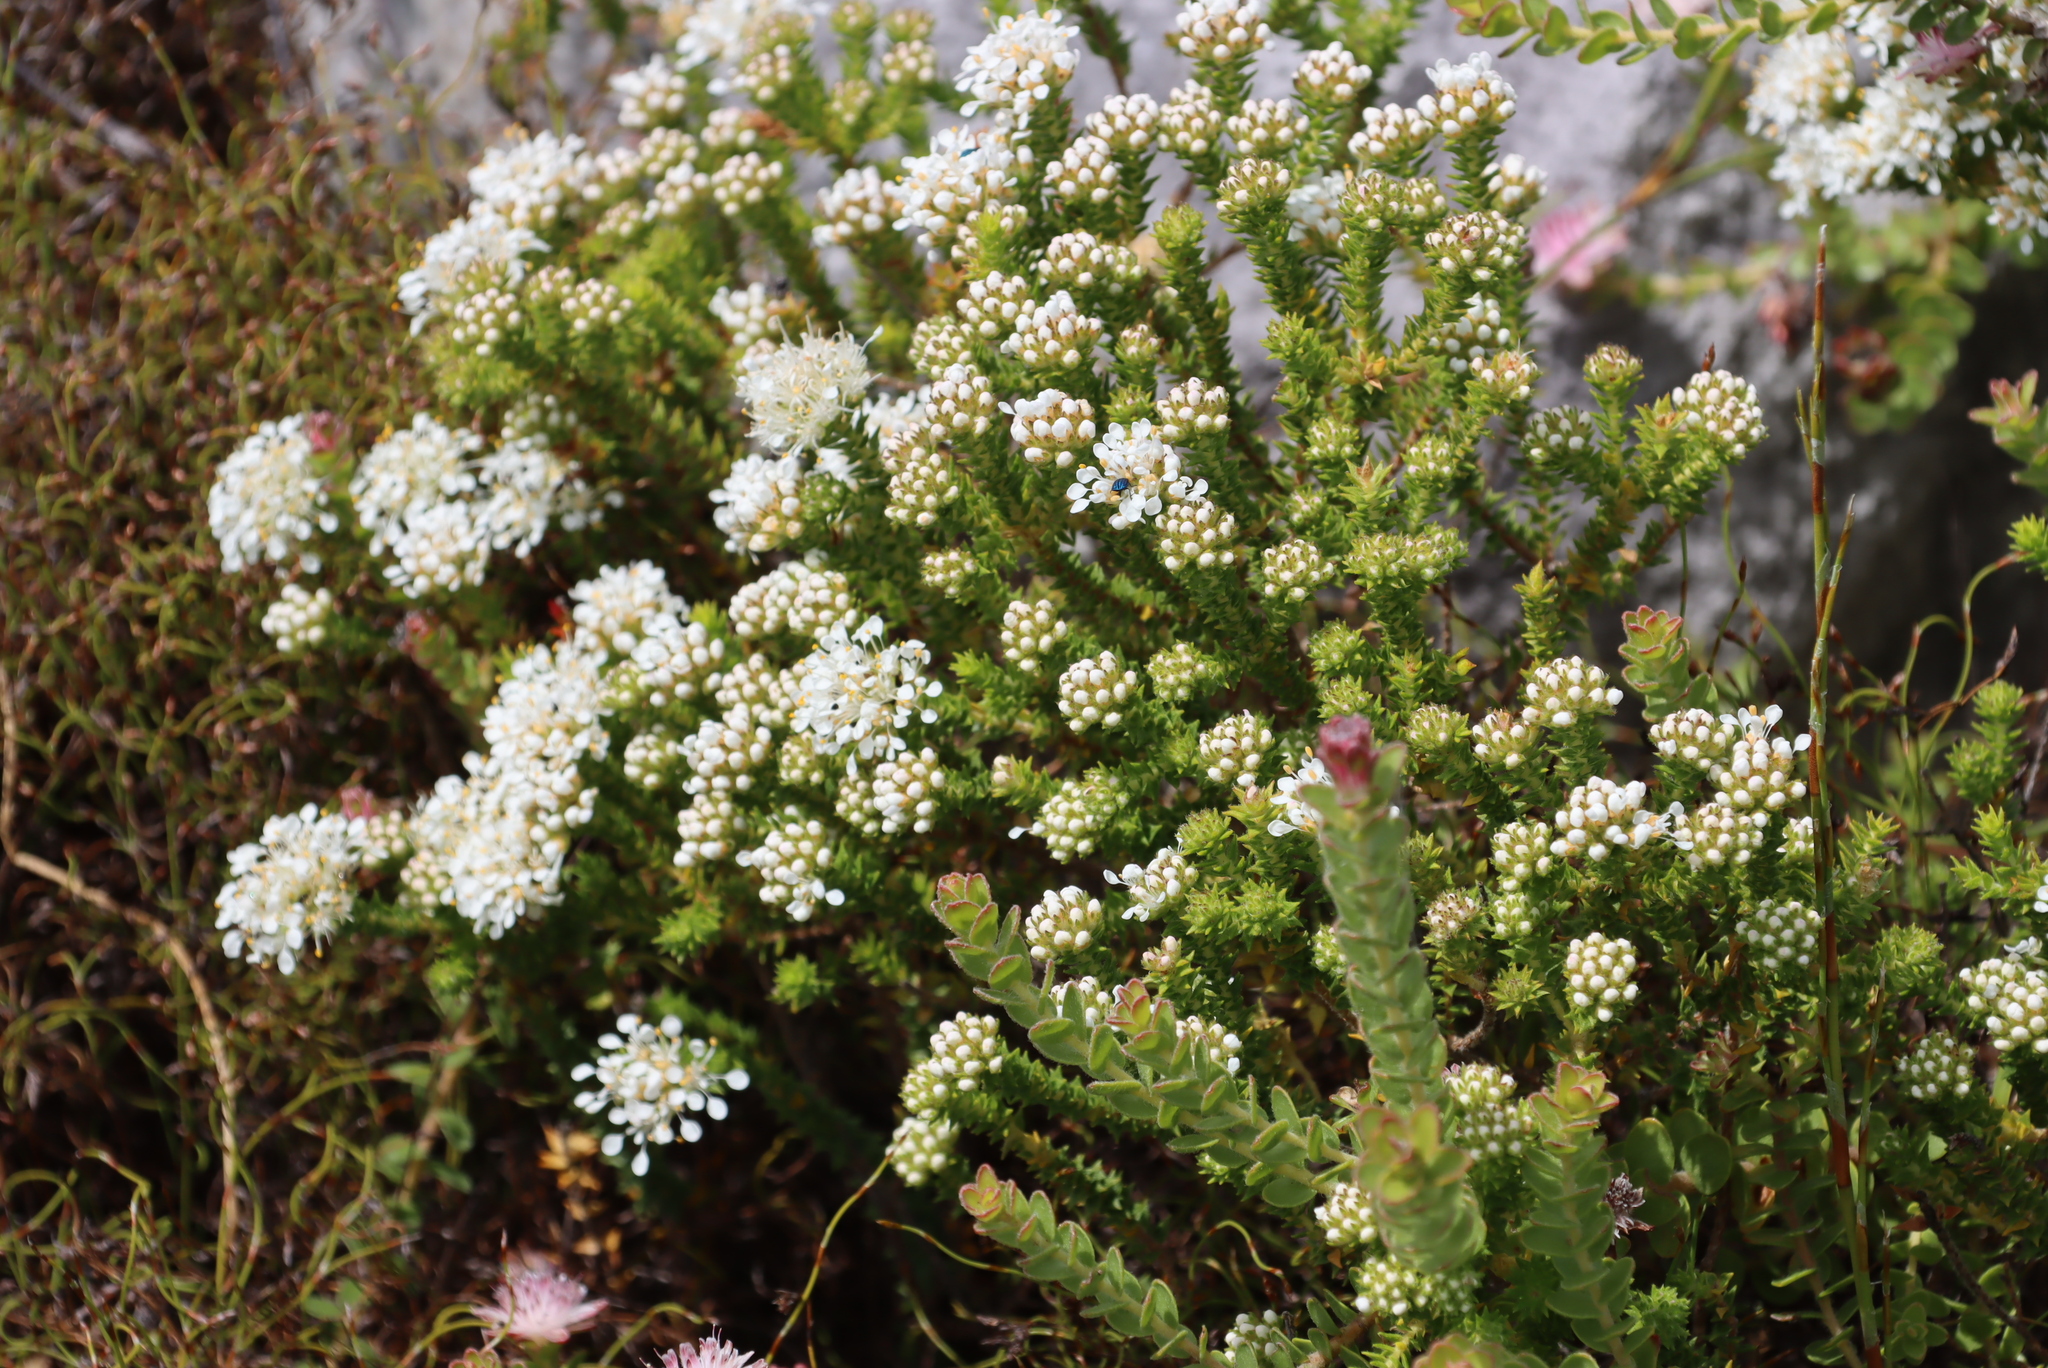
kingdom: Plantae
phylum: Tracheophyta
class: Magnoliopsida
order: Sapindales
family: Rutaceae
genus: Agathosma
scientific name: Agathosma imbricata
